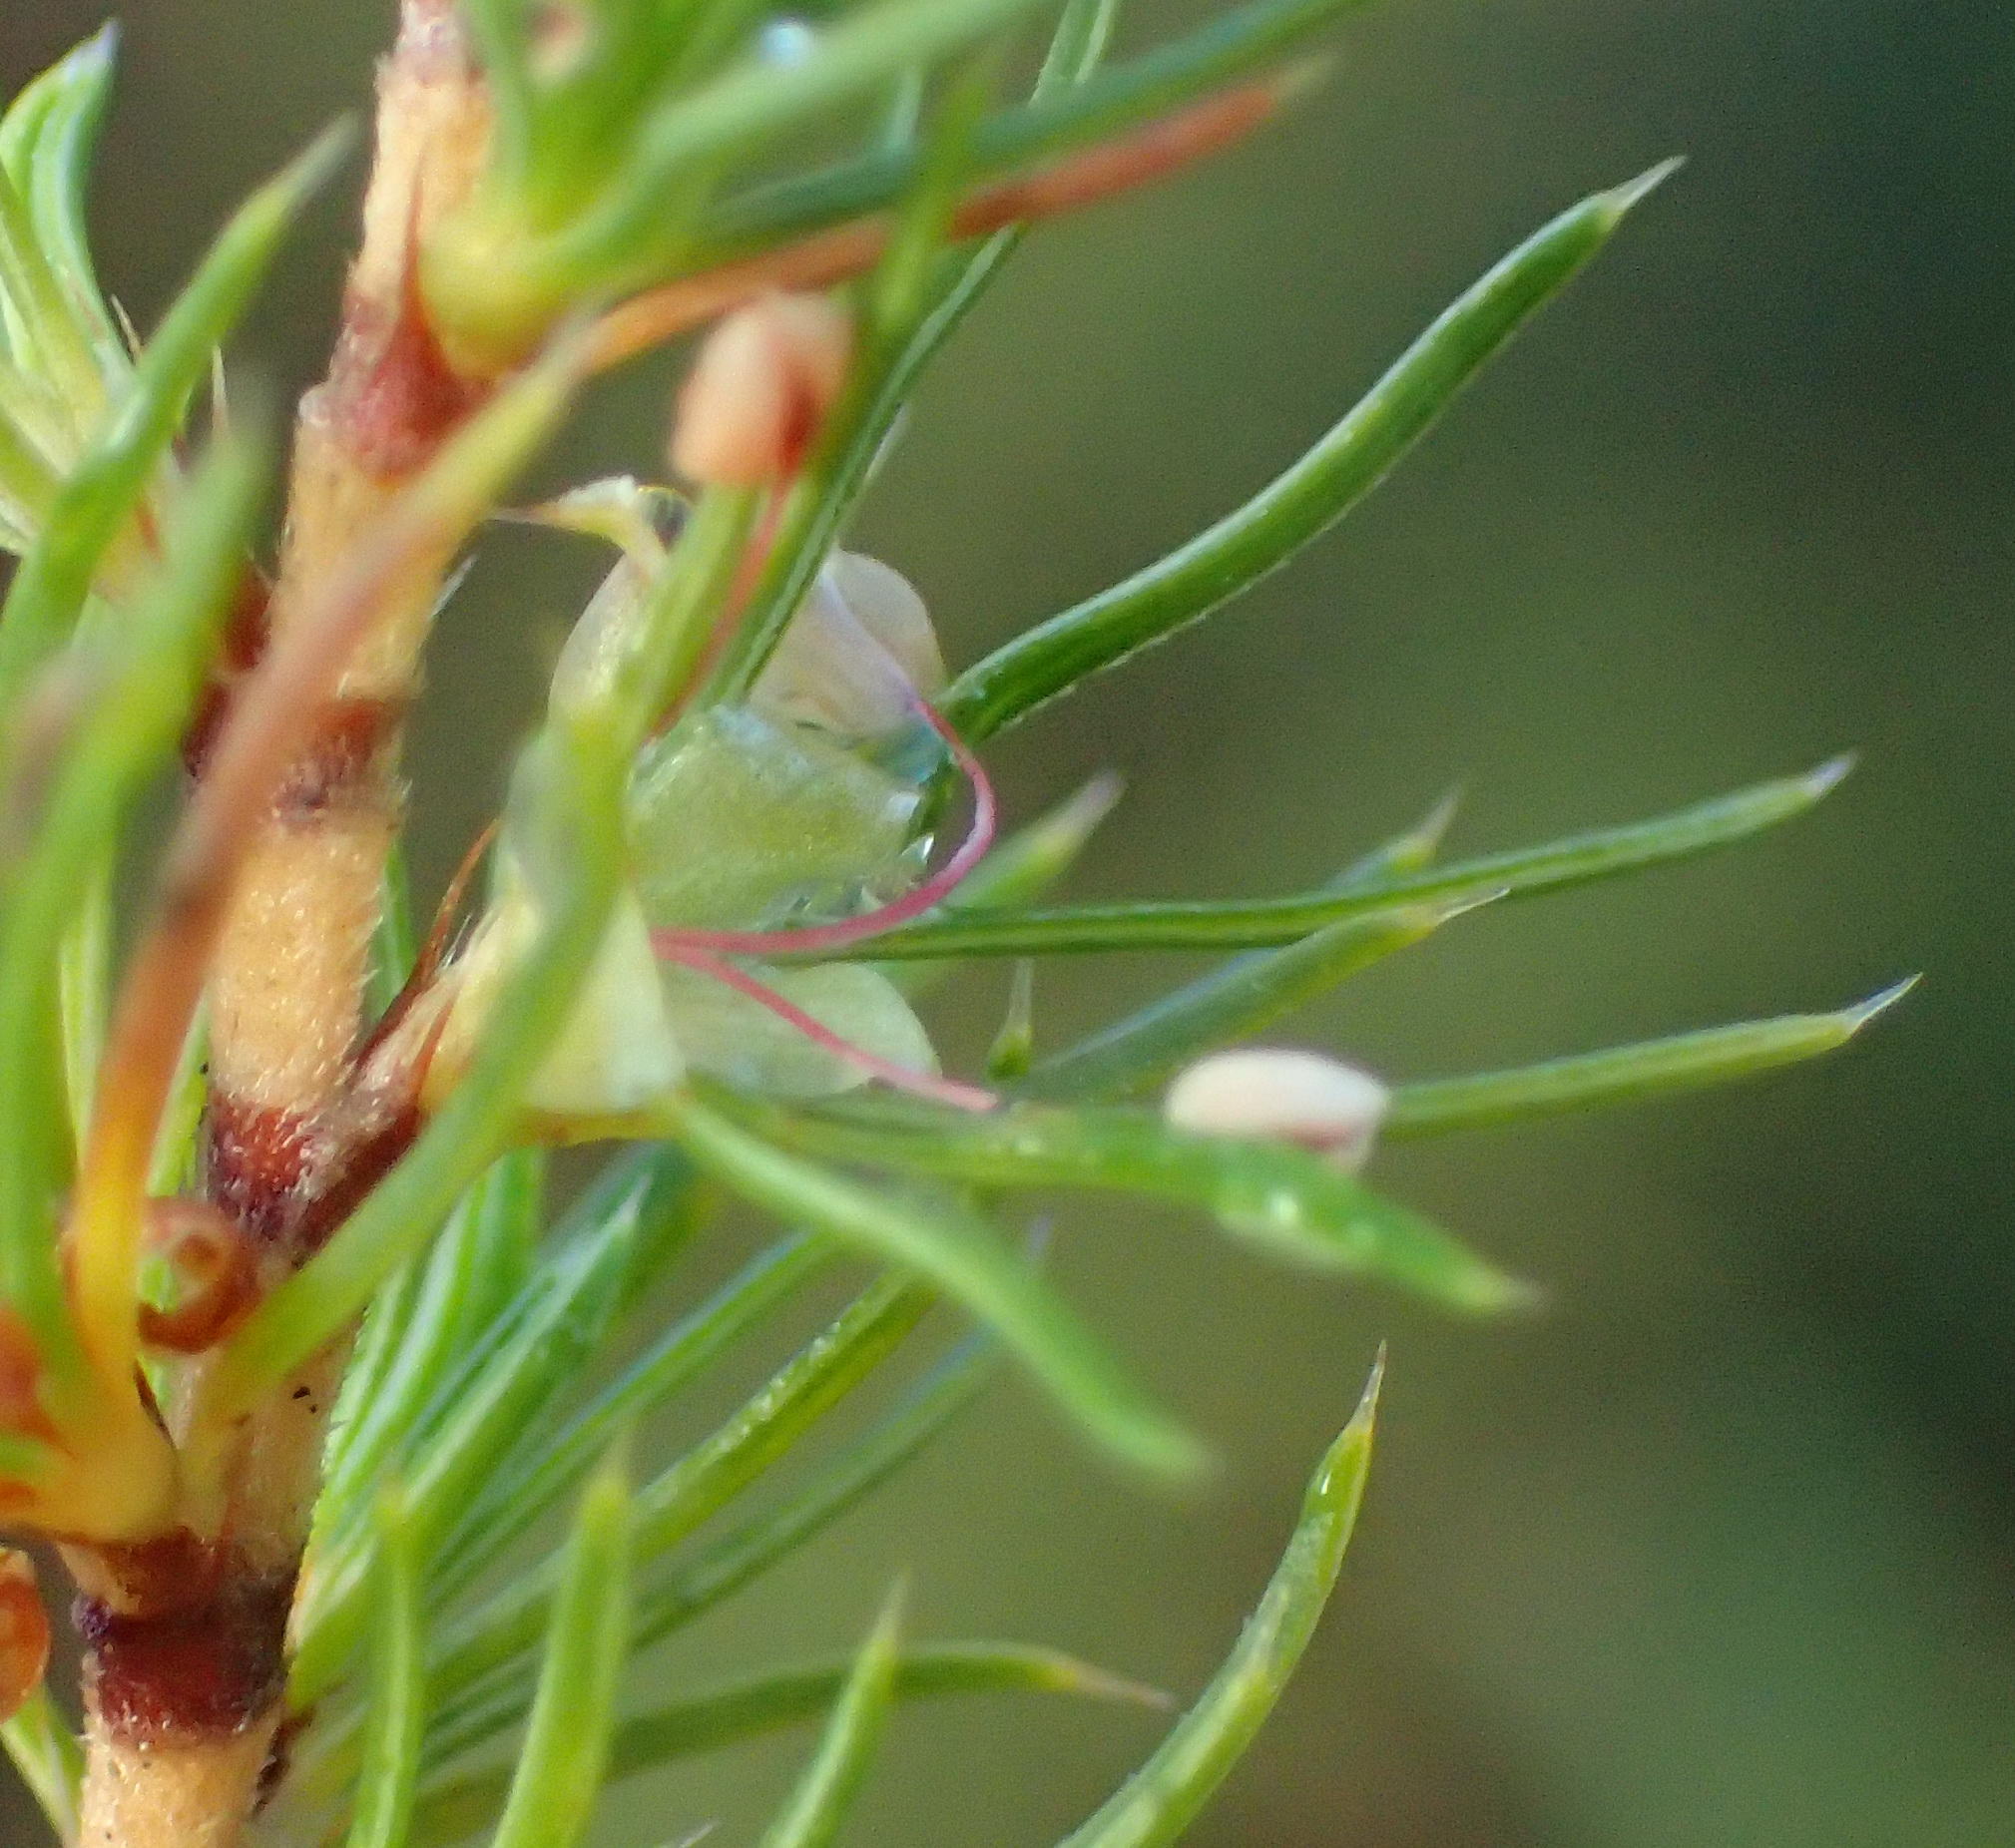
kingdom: Plantae
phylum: Tracheophyta
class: Magnoliopsida
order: Rosales
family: Rosaceae
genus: Cliffortia
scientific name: Cliffortia paucistaminea
